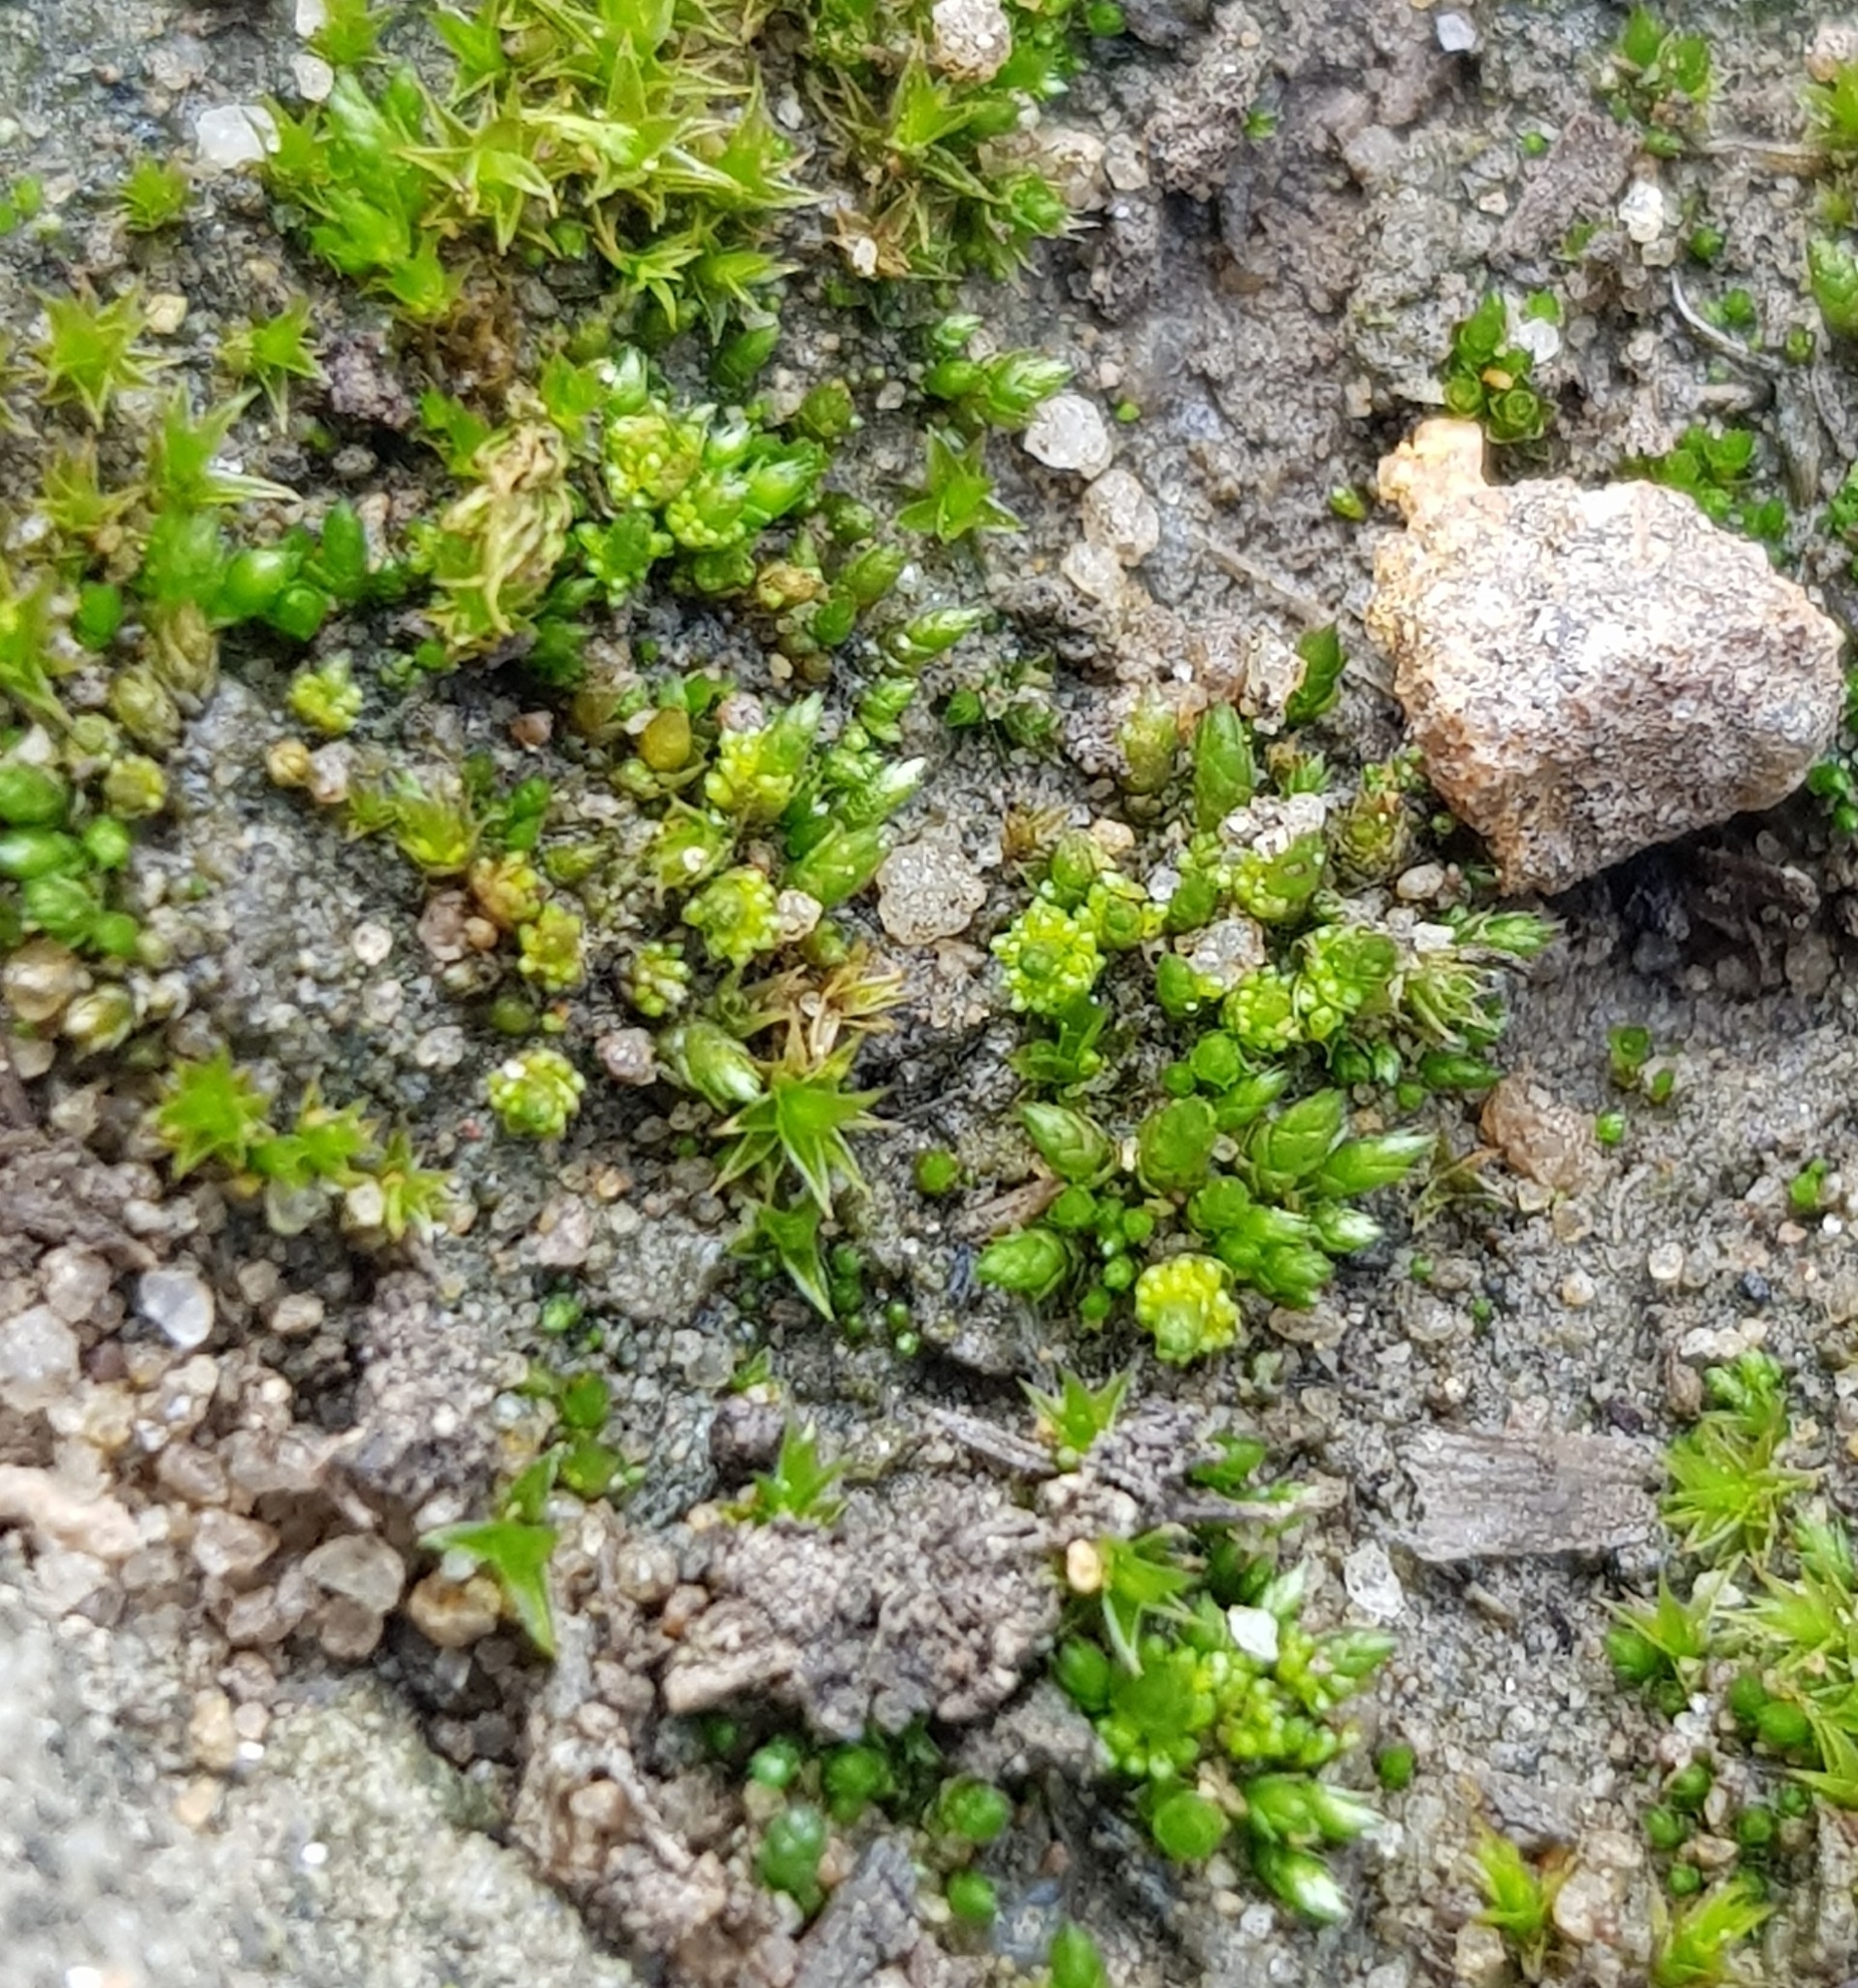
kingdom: Plantae
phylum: Bryophyta
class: Bryopsida
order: Bryales
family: Bryaceae
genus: Gemmabryum
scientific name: Gemmabryum dichotomum
